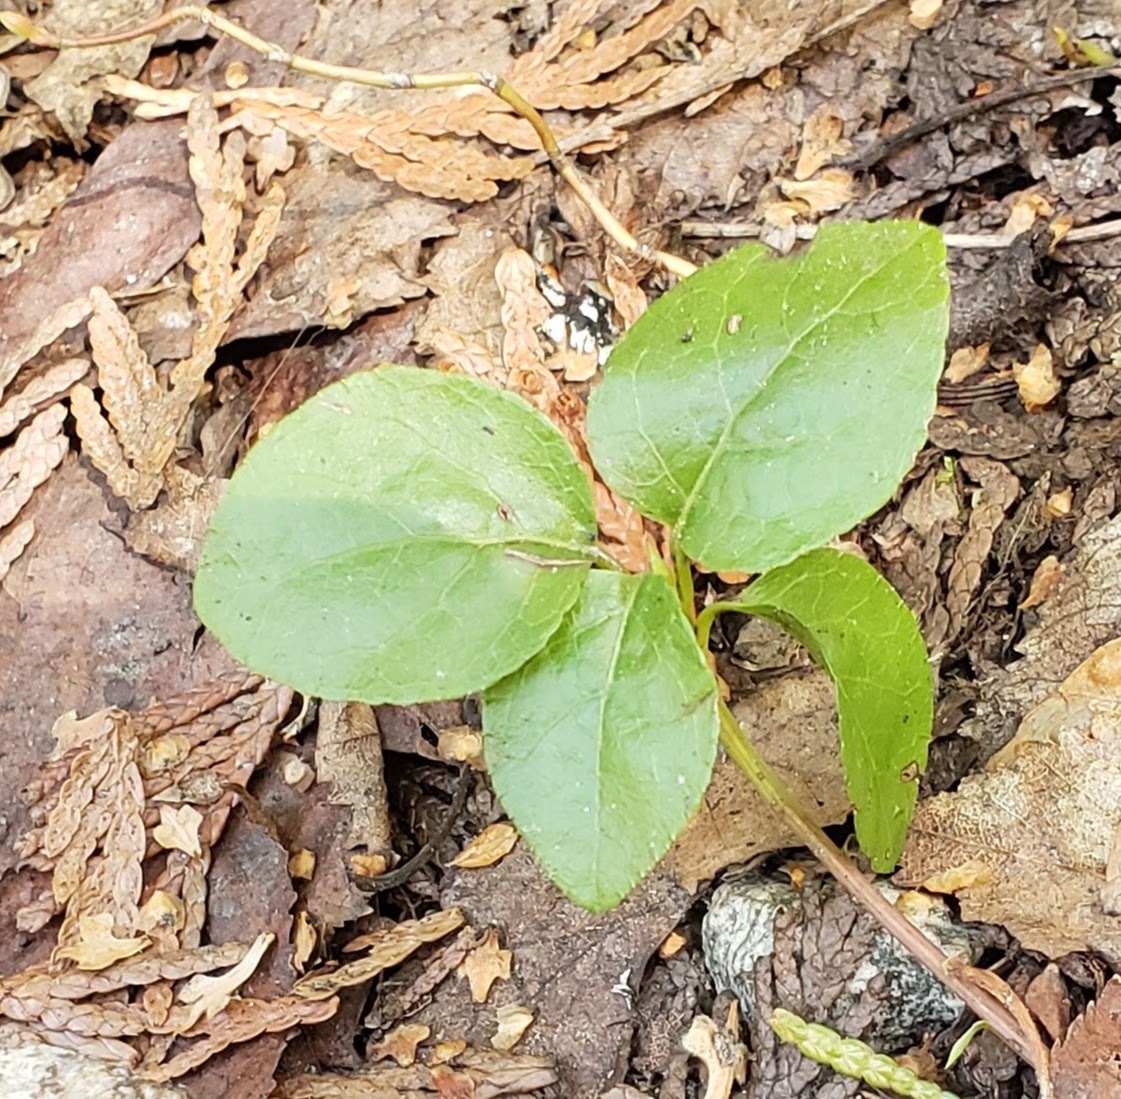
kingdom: Plantae
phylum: Tracheophyta
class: Magnoliopsida
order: Ericales
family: Ericaceae
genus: Orthilia
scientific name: Orthilia secunda
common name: One-sided orthilia
